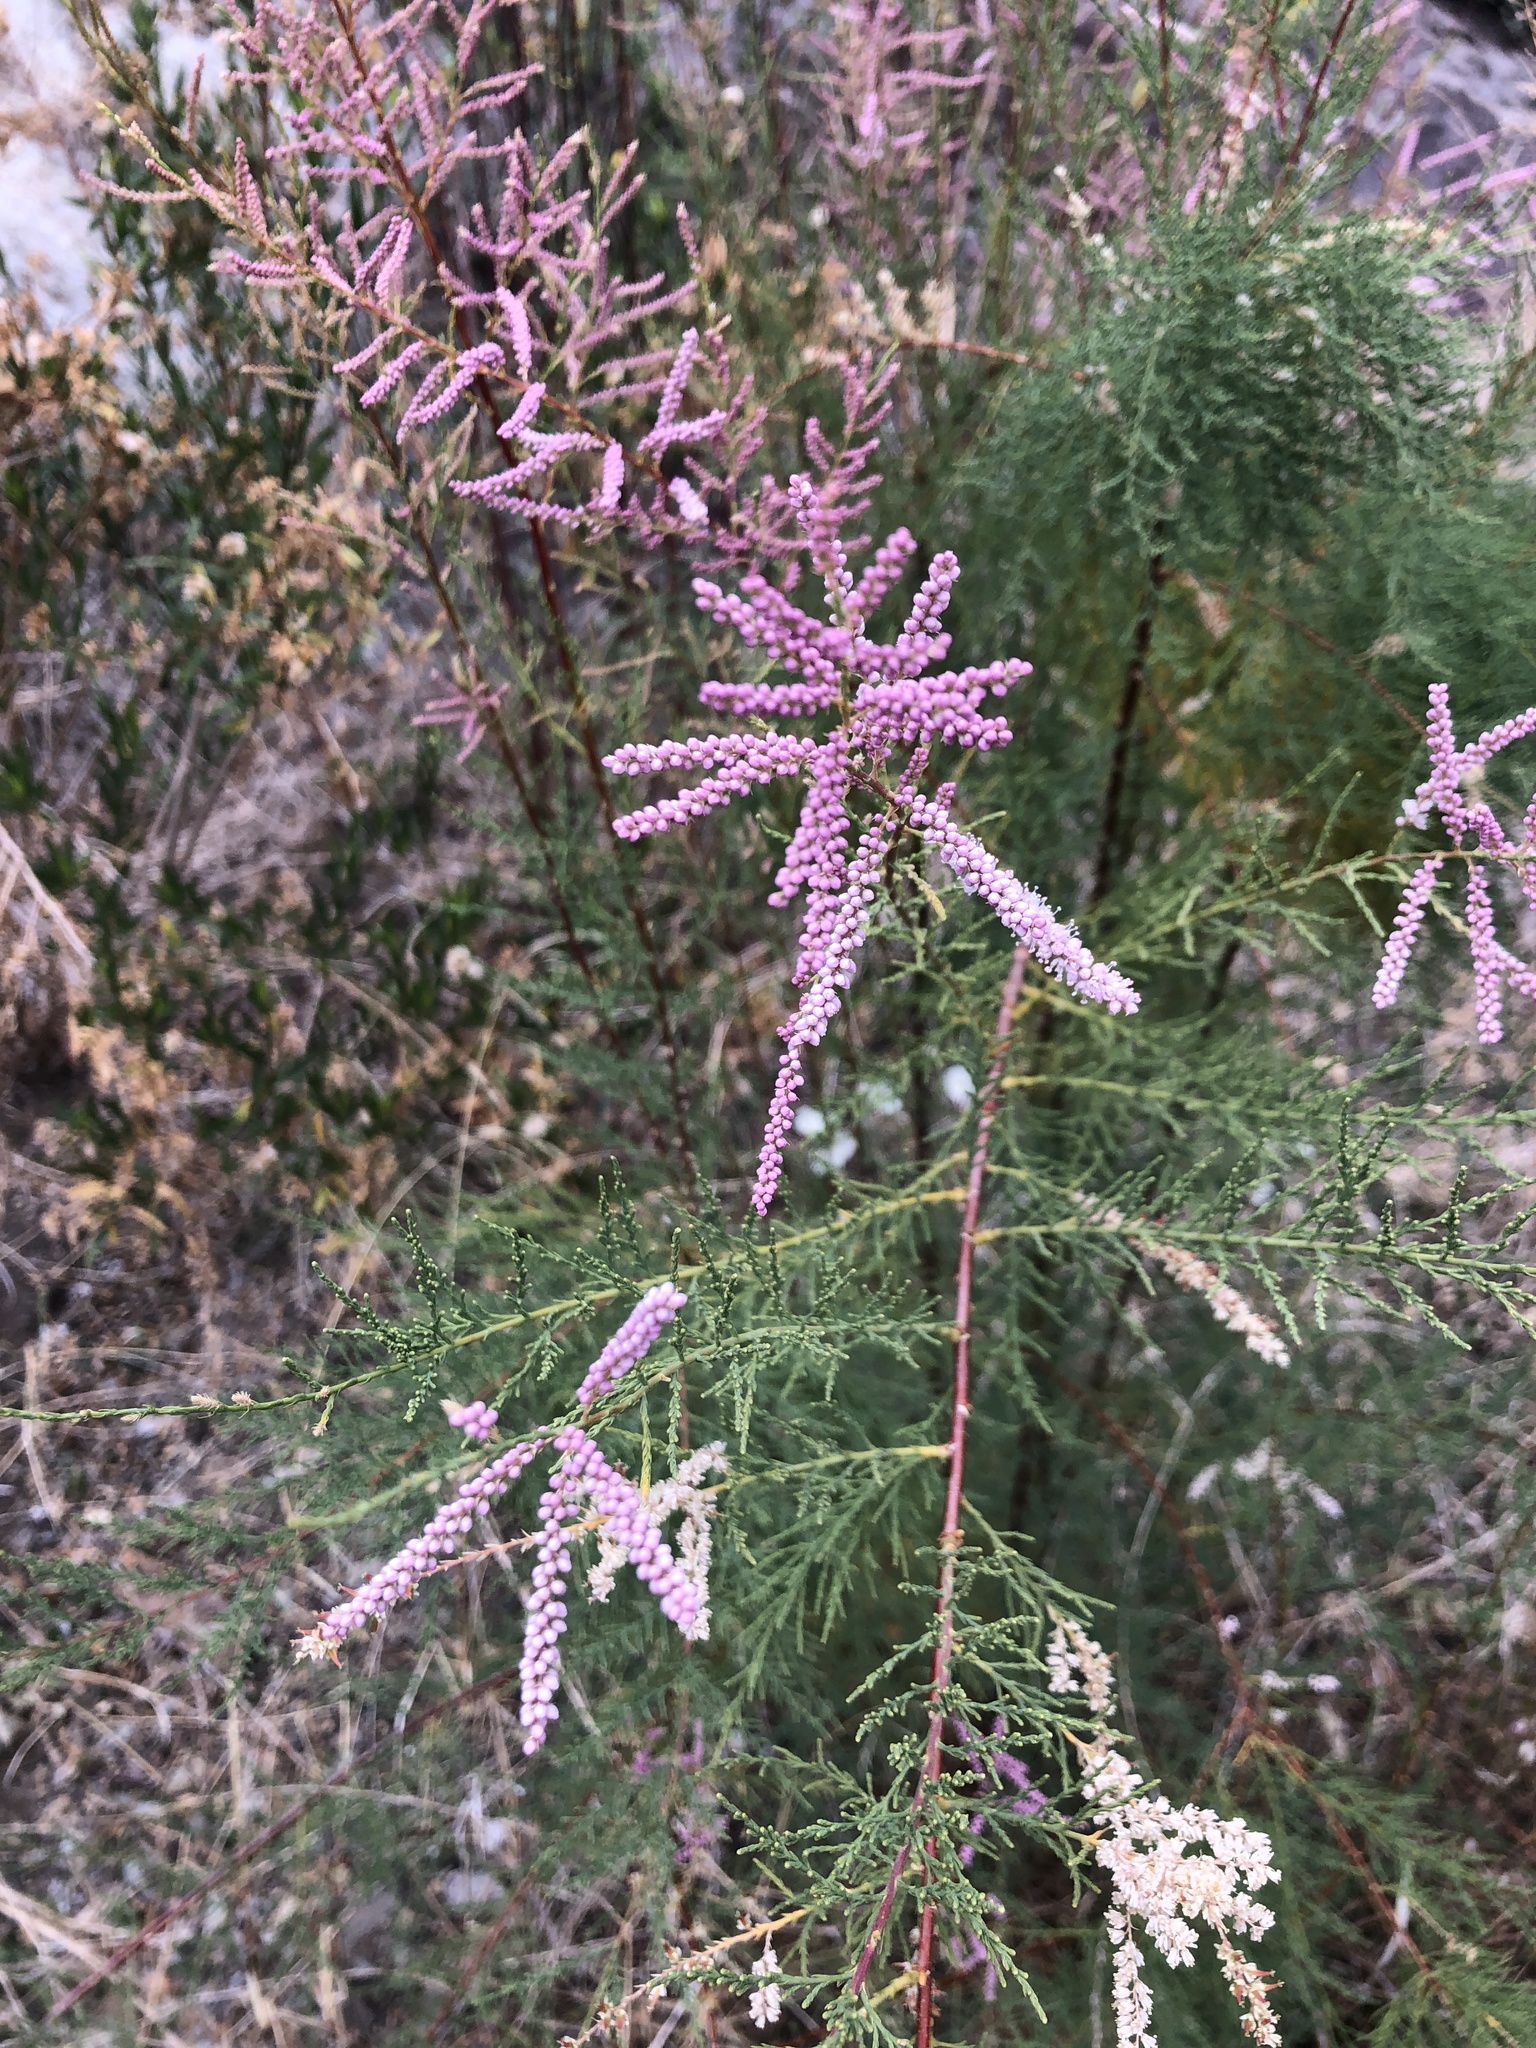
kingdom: Plantae
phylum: Tracheophyta
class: Magnoliopsida
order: Caryophyllales
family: Tamaricaceae
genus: Tamarix
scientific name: Tamarix
